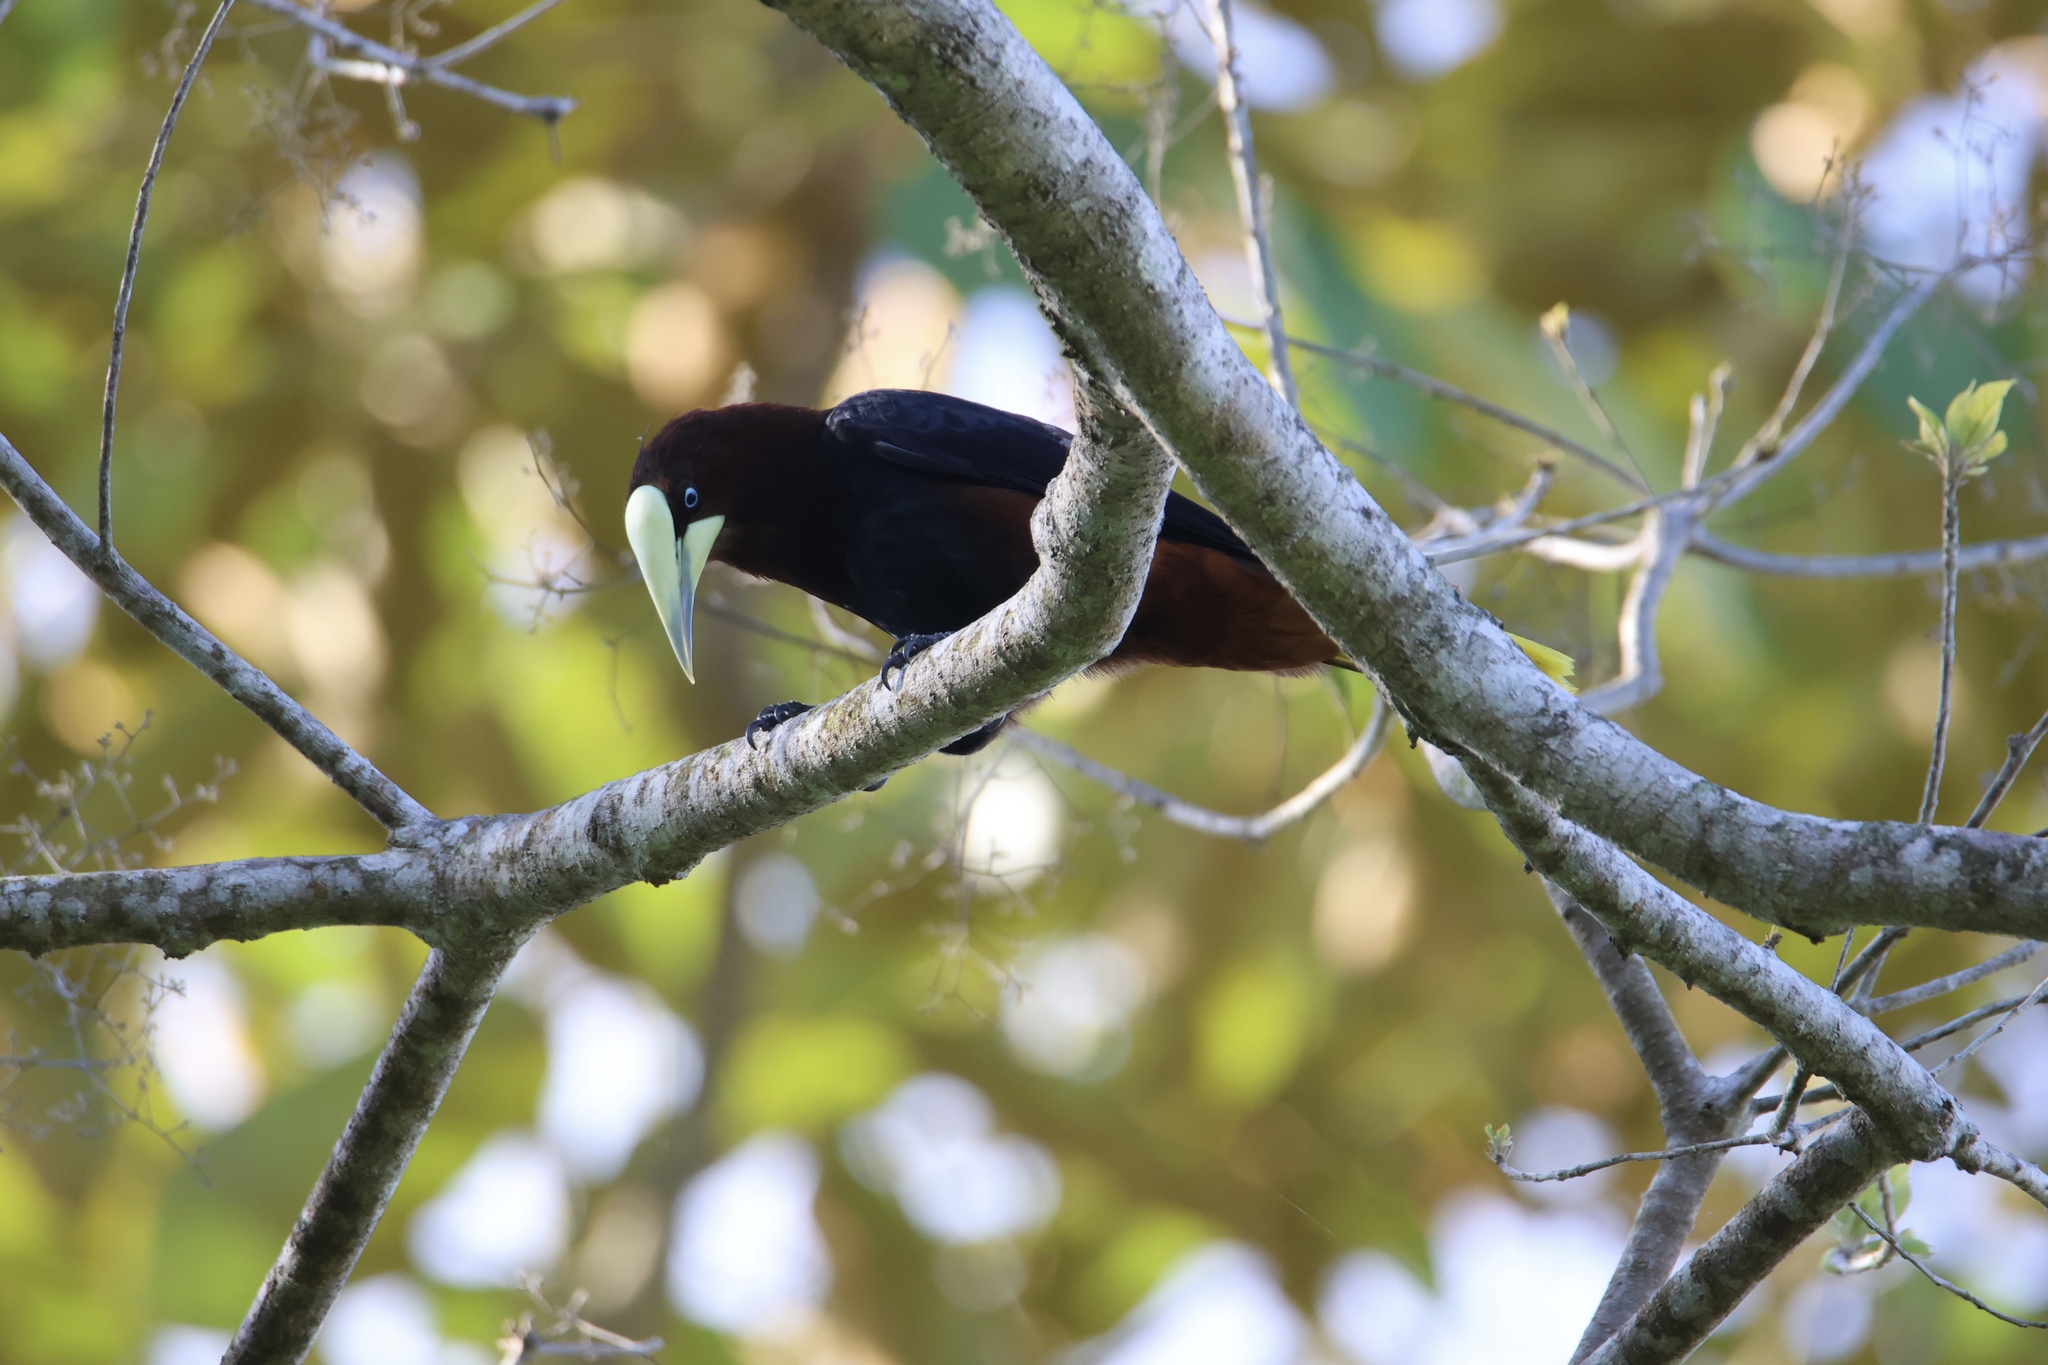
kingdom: Animalia
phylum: Chordata
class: Aves
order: Passeriformes
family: Icteridae
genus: Psarocolius
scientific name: Psarocolius wagleri
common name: Chestnut-headed oropendola
